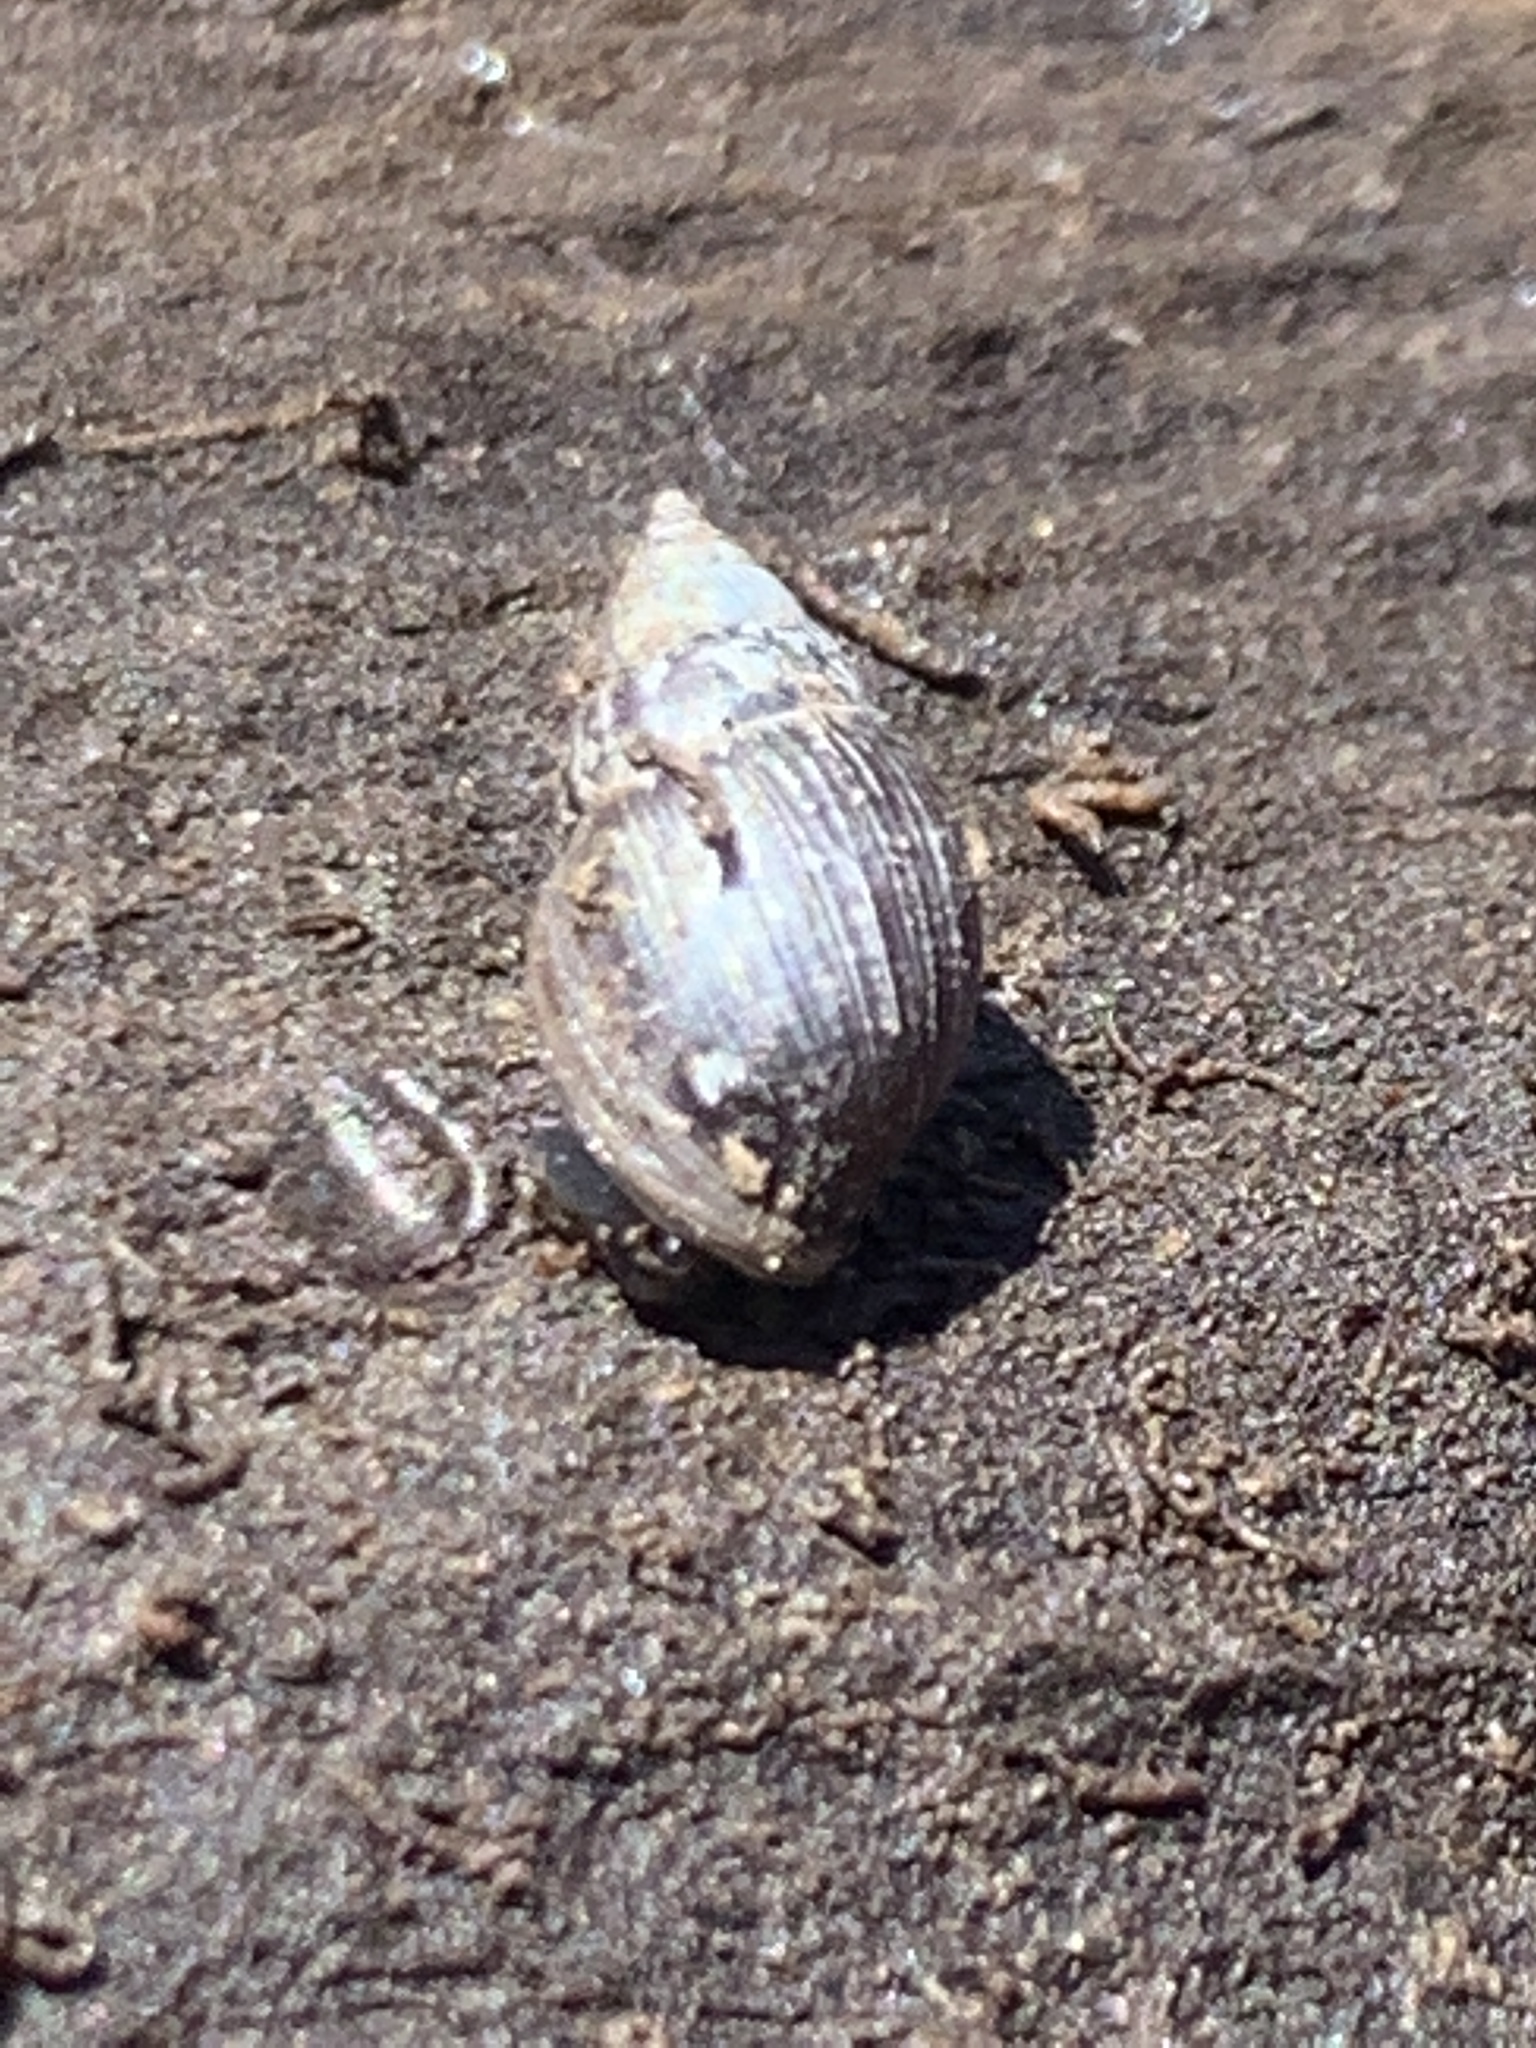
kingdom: Animalia
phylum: Mollusca
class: Gastropoda
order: Ellobiida
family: Ellobiidae
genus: Myosotella
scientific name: Myosotella myosotis
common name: Mouse-eared snail
